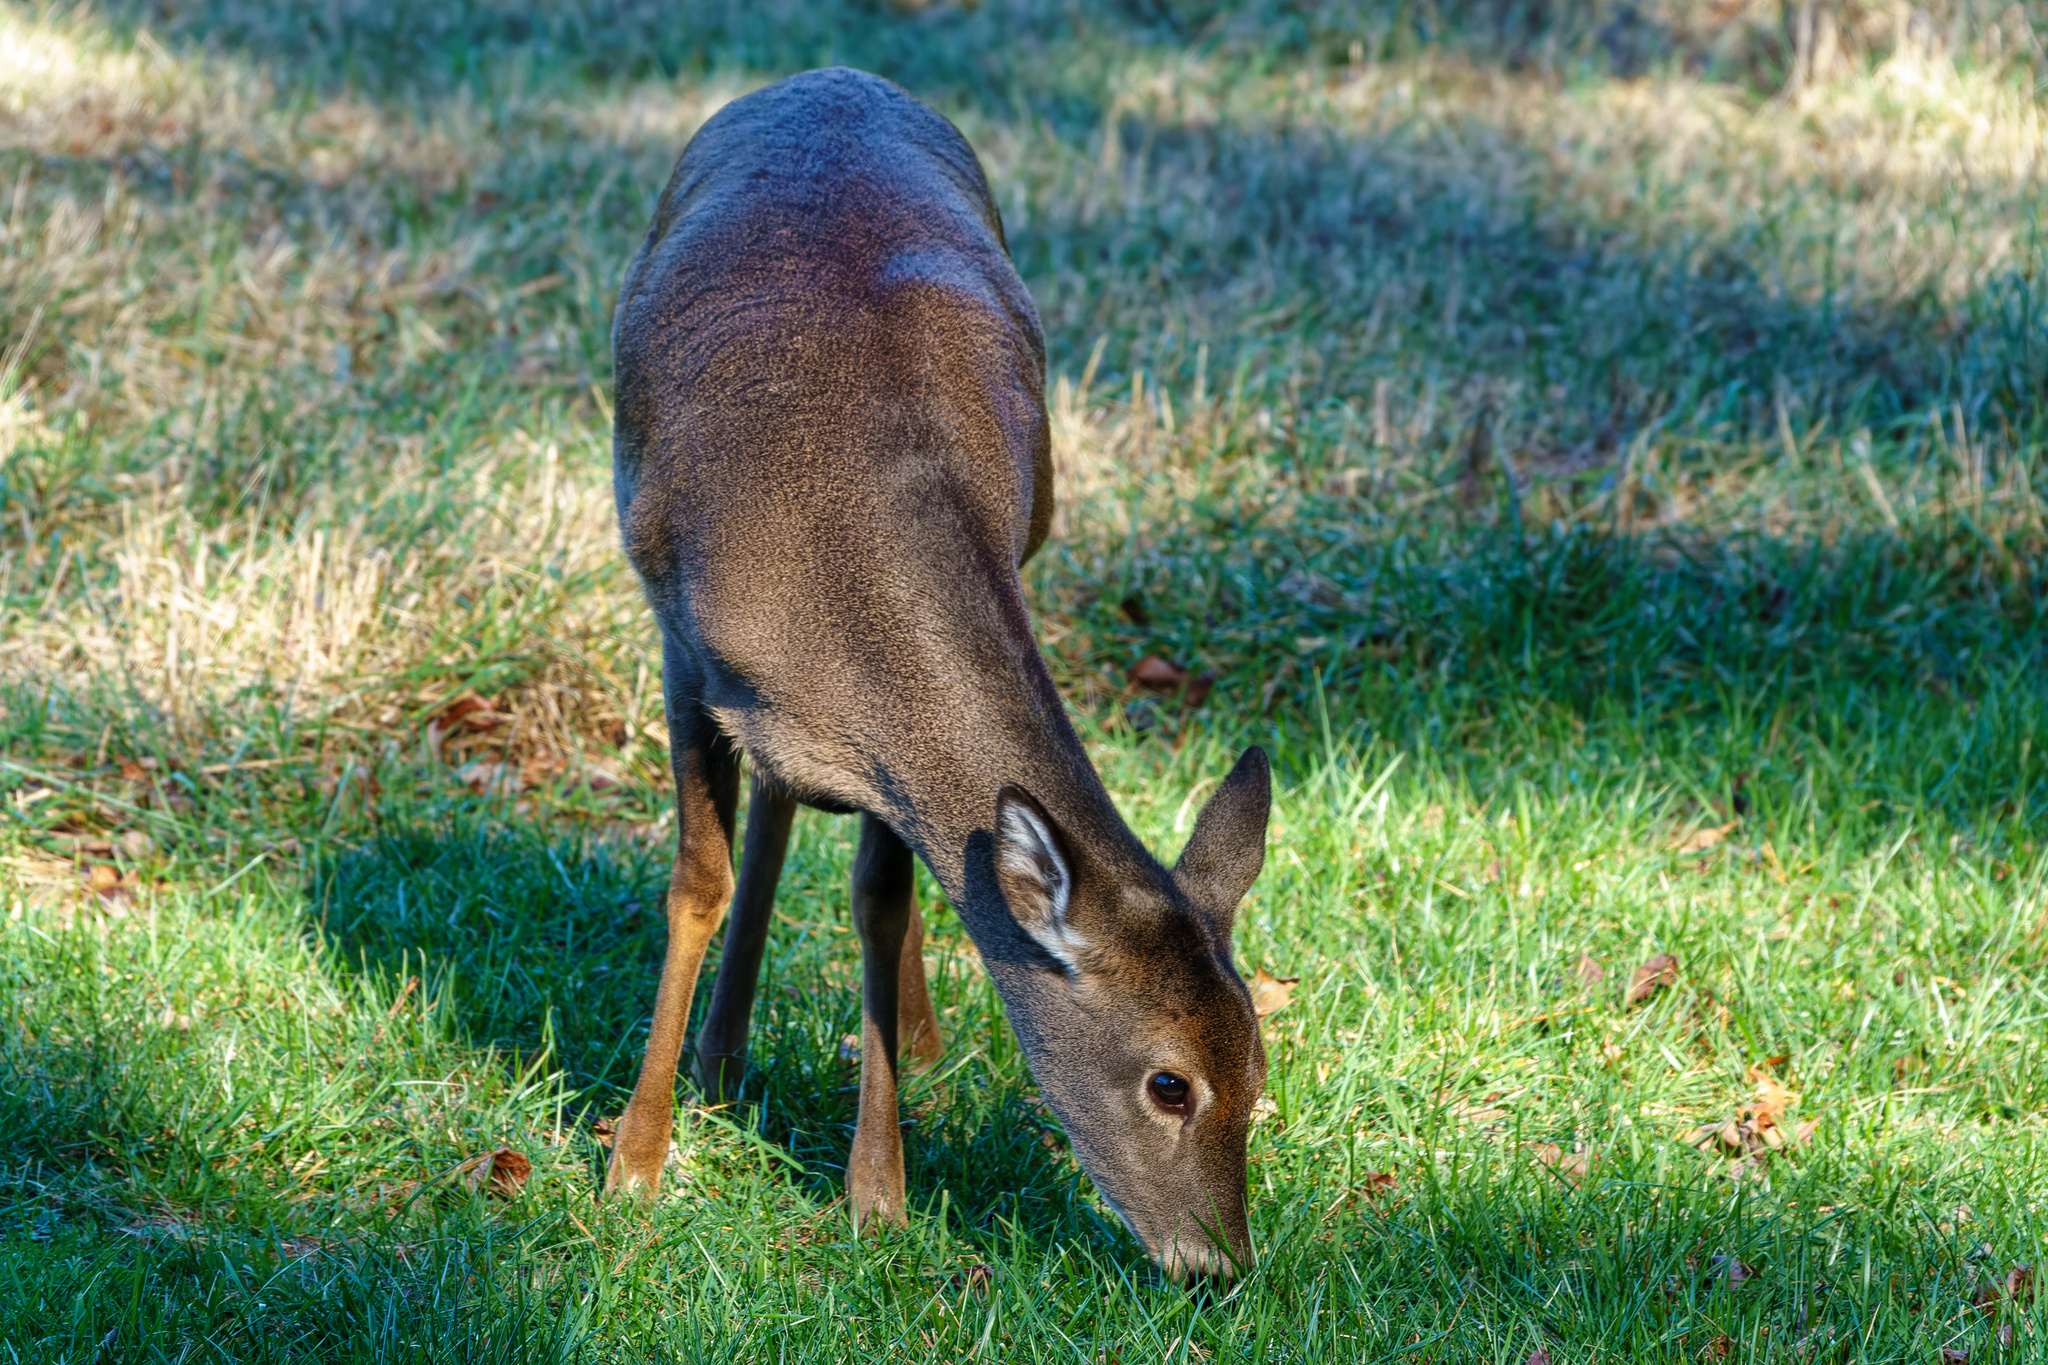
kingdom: Animalia
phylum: Chordata
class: Mammalia
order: Artiodactyla
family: Cervidae
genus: Odocoileus
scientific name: Odocoileus virginianus
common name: White-tailed deer
